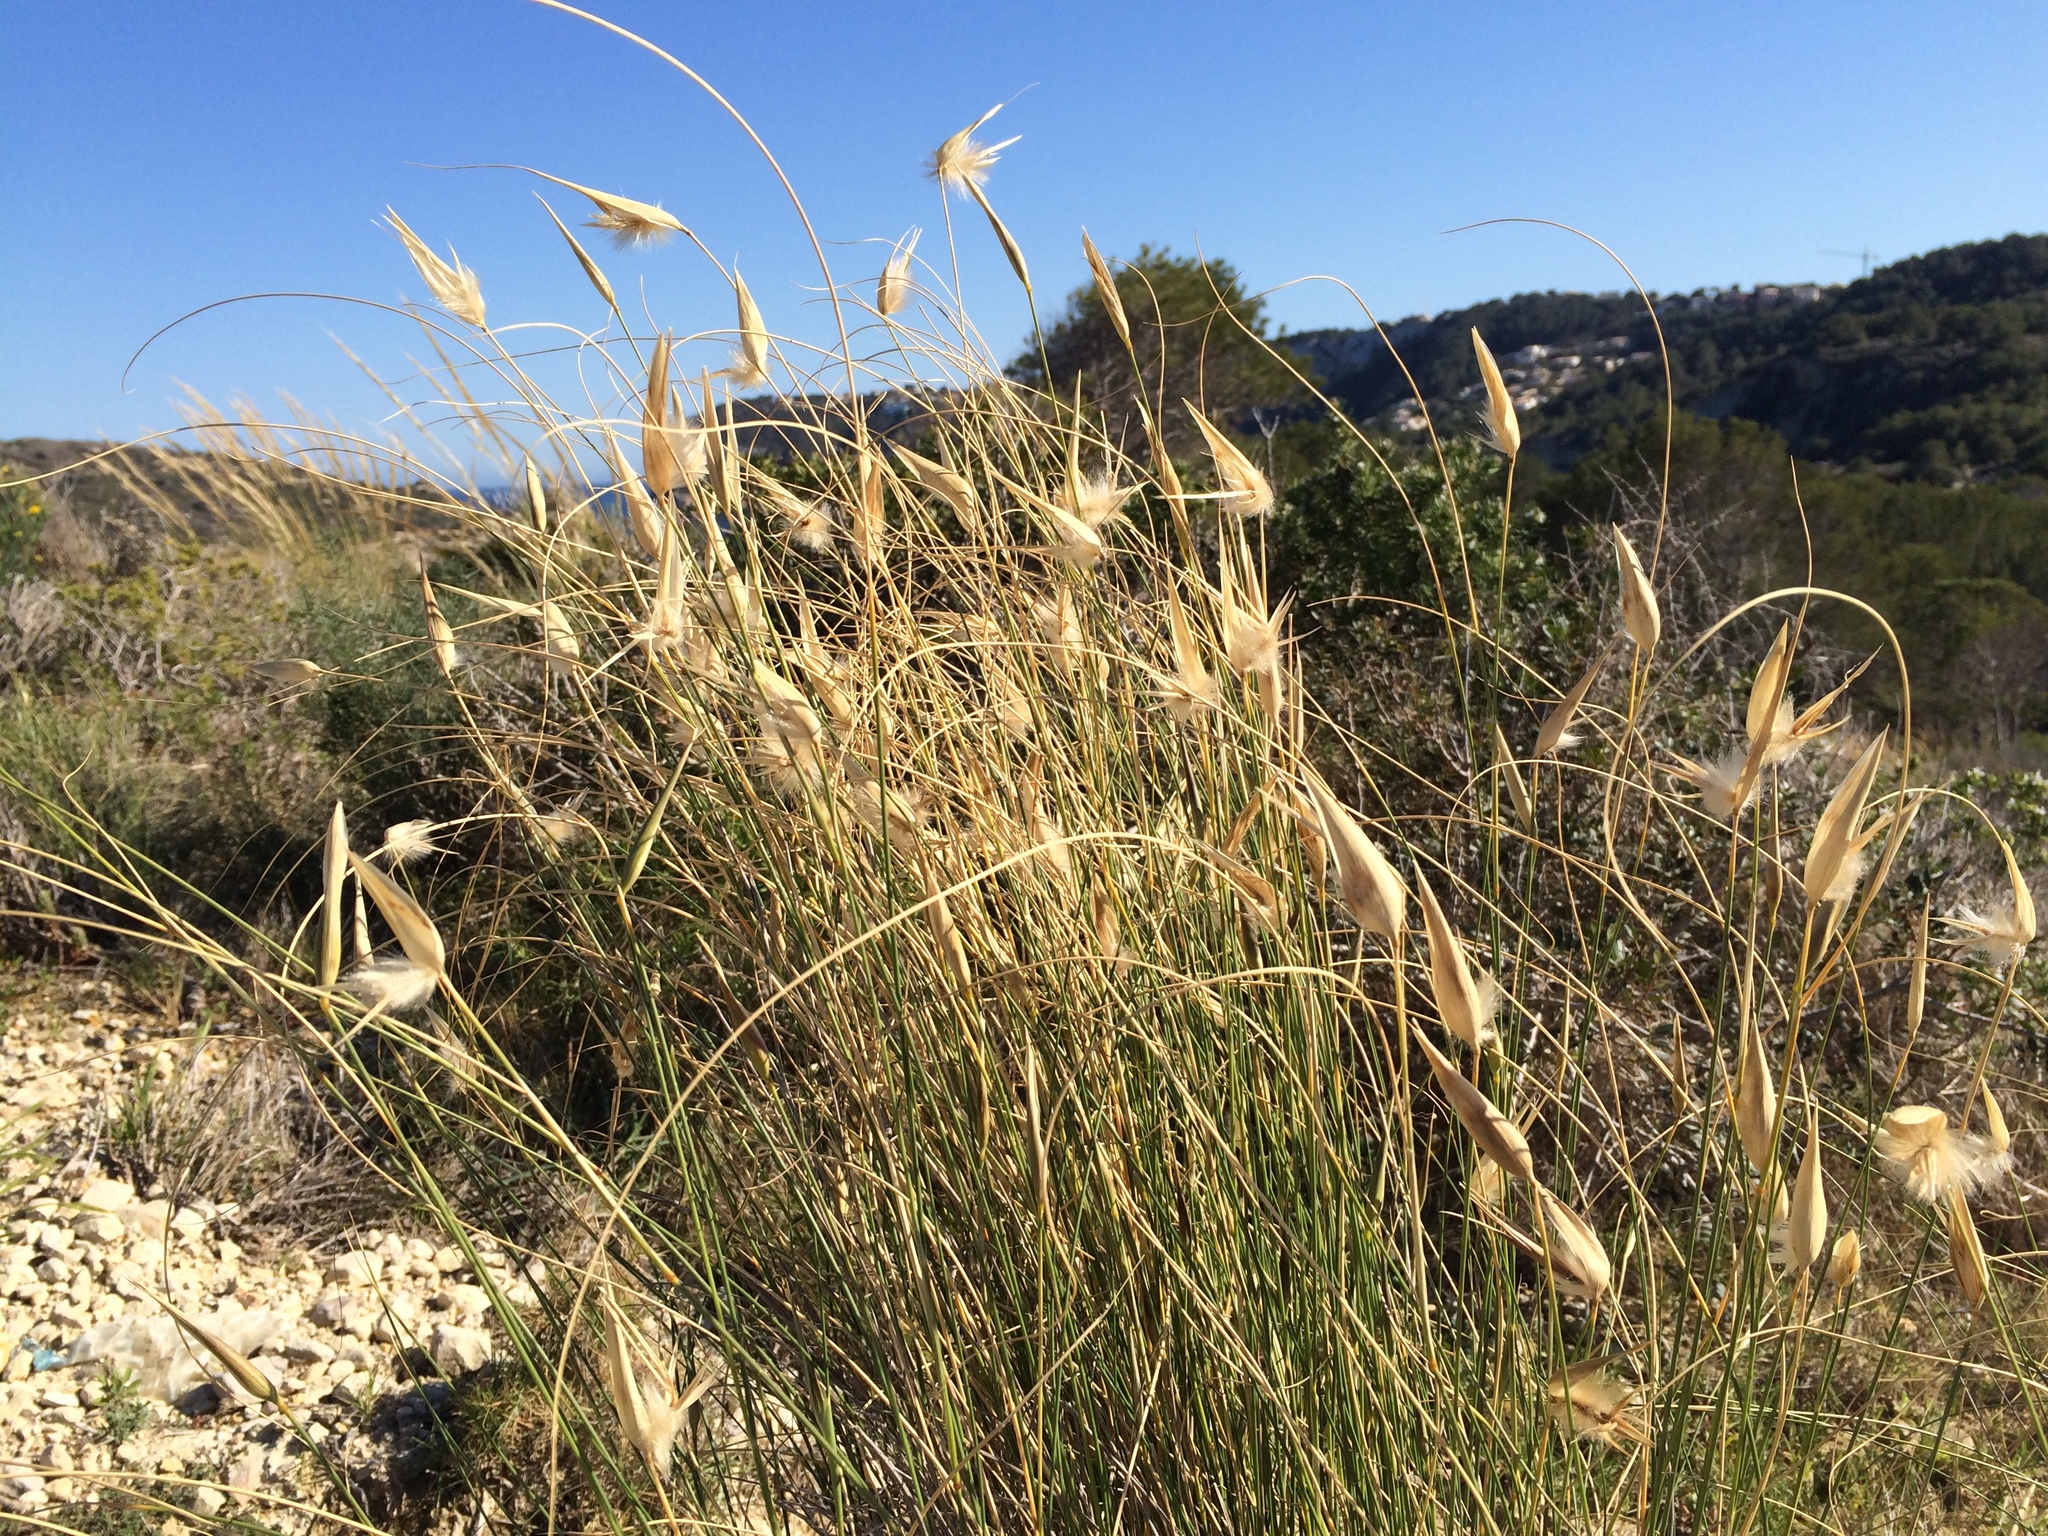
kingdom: Plantae
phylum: Tracheophyta
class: Liliopsida
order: Poales
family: Poaceae
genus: Lygeum
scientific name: Lygeum spartum
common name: Albardine
